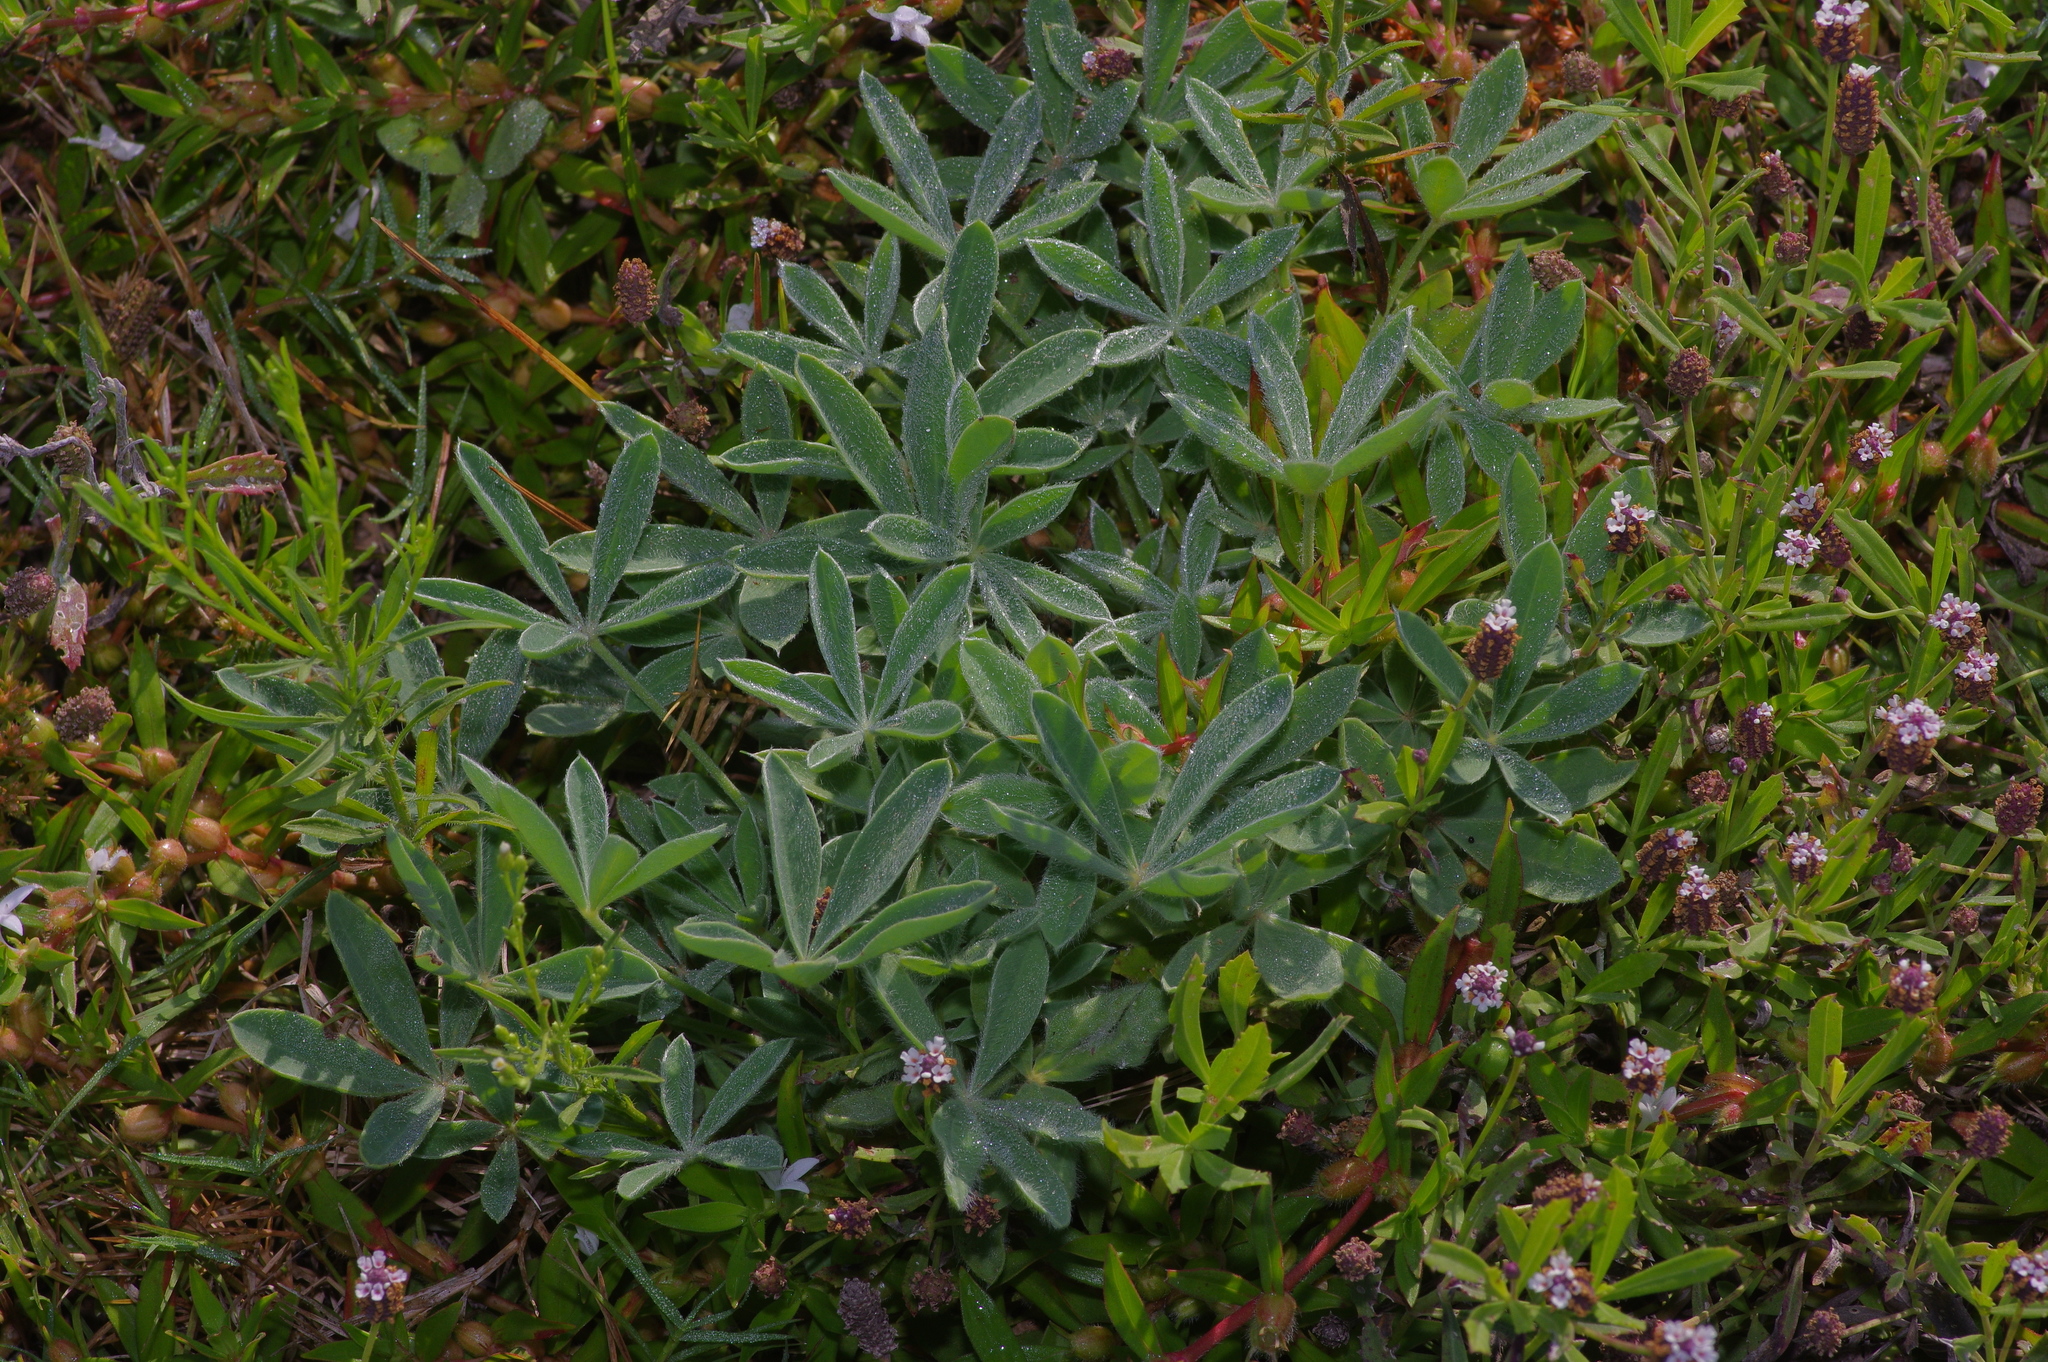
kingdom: Plantae
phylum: Tracheophyta
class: Magnoliopsida
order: Fabales
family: Fabaceae
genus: Lupinus
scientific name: Lupinus texensis
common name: Texas bluebonnet
